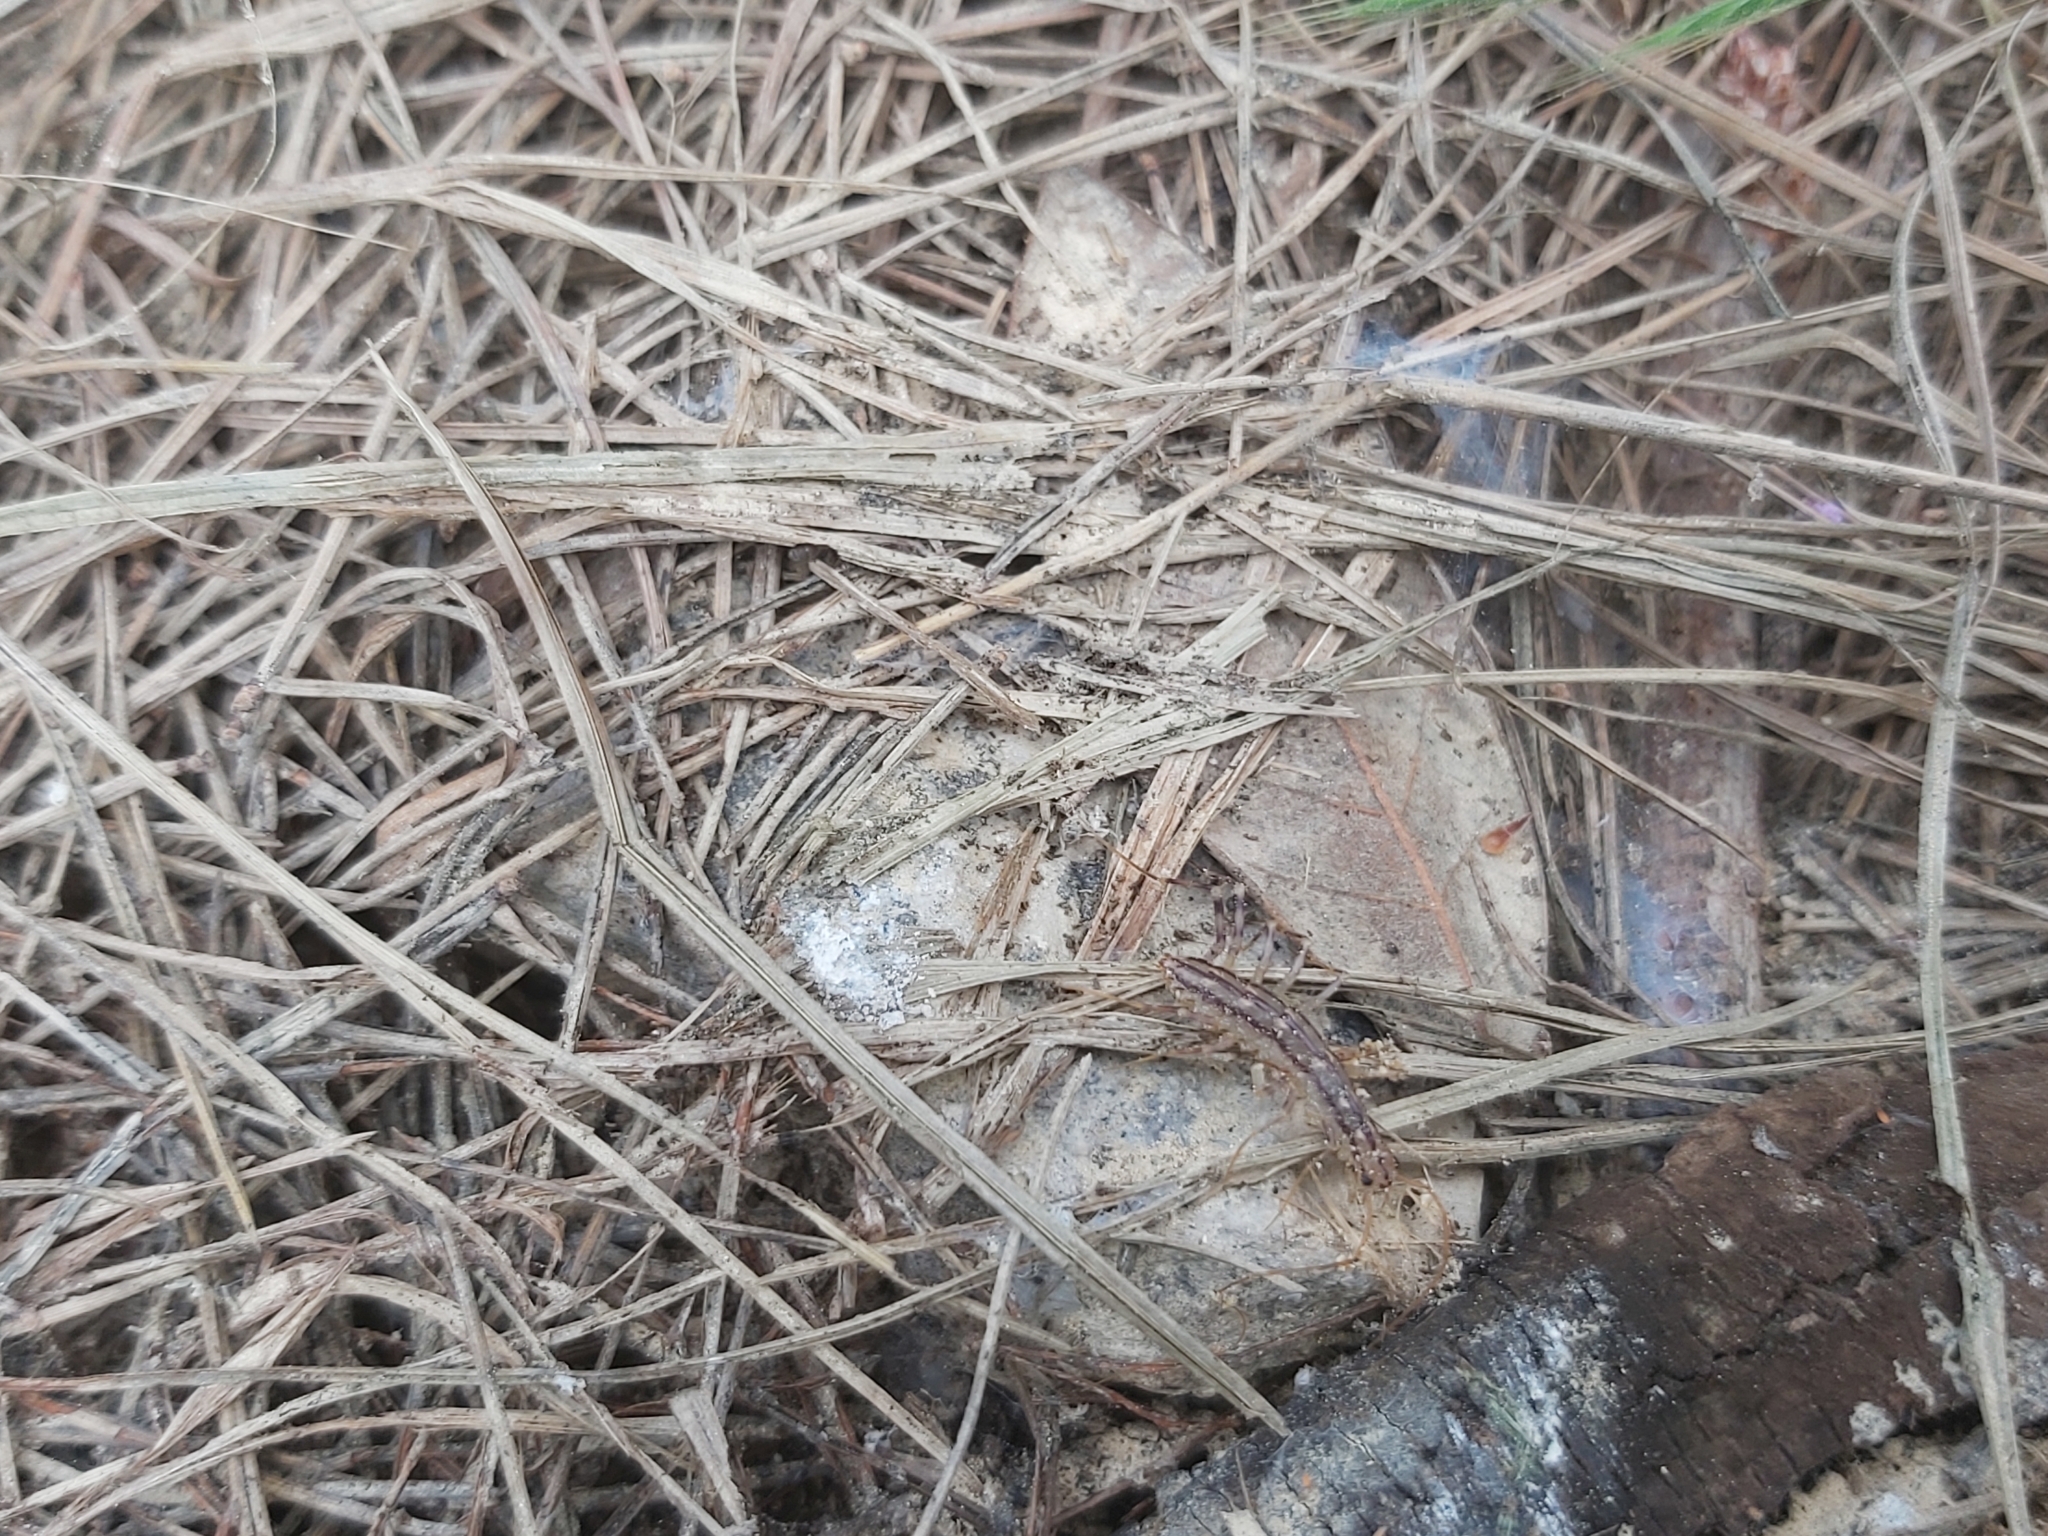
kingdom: Animalia
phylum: Arthropoda
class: Chilopoda
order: Scutigeromorpha
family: Scutigeridae
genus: Scutigera
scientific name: Scutigera coleoptrata
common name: House centipede
